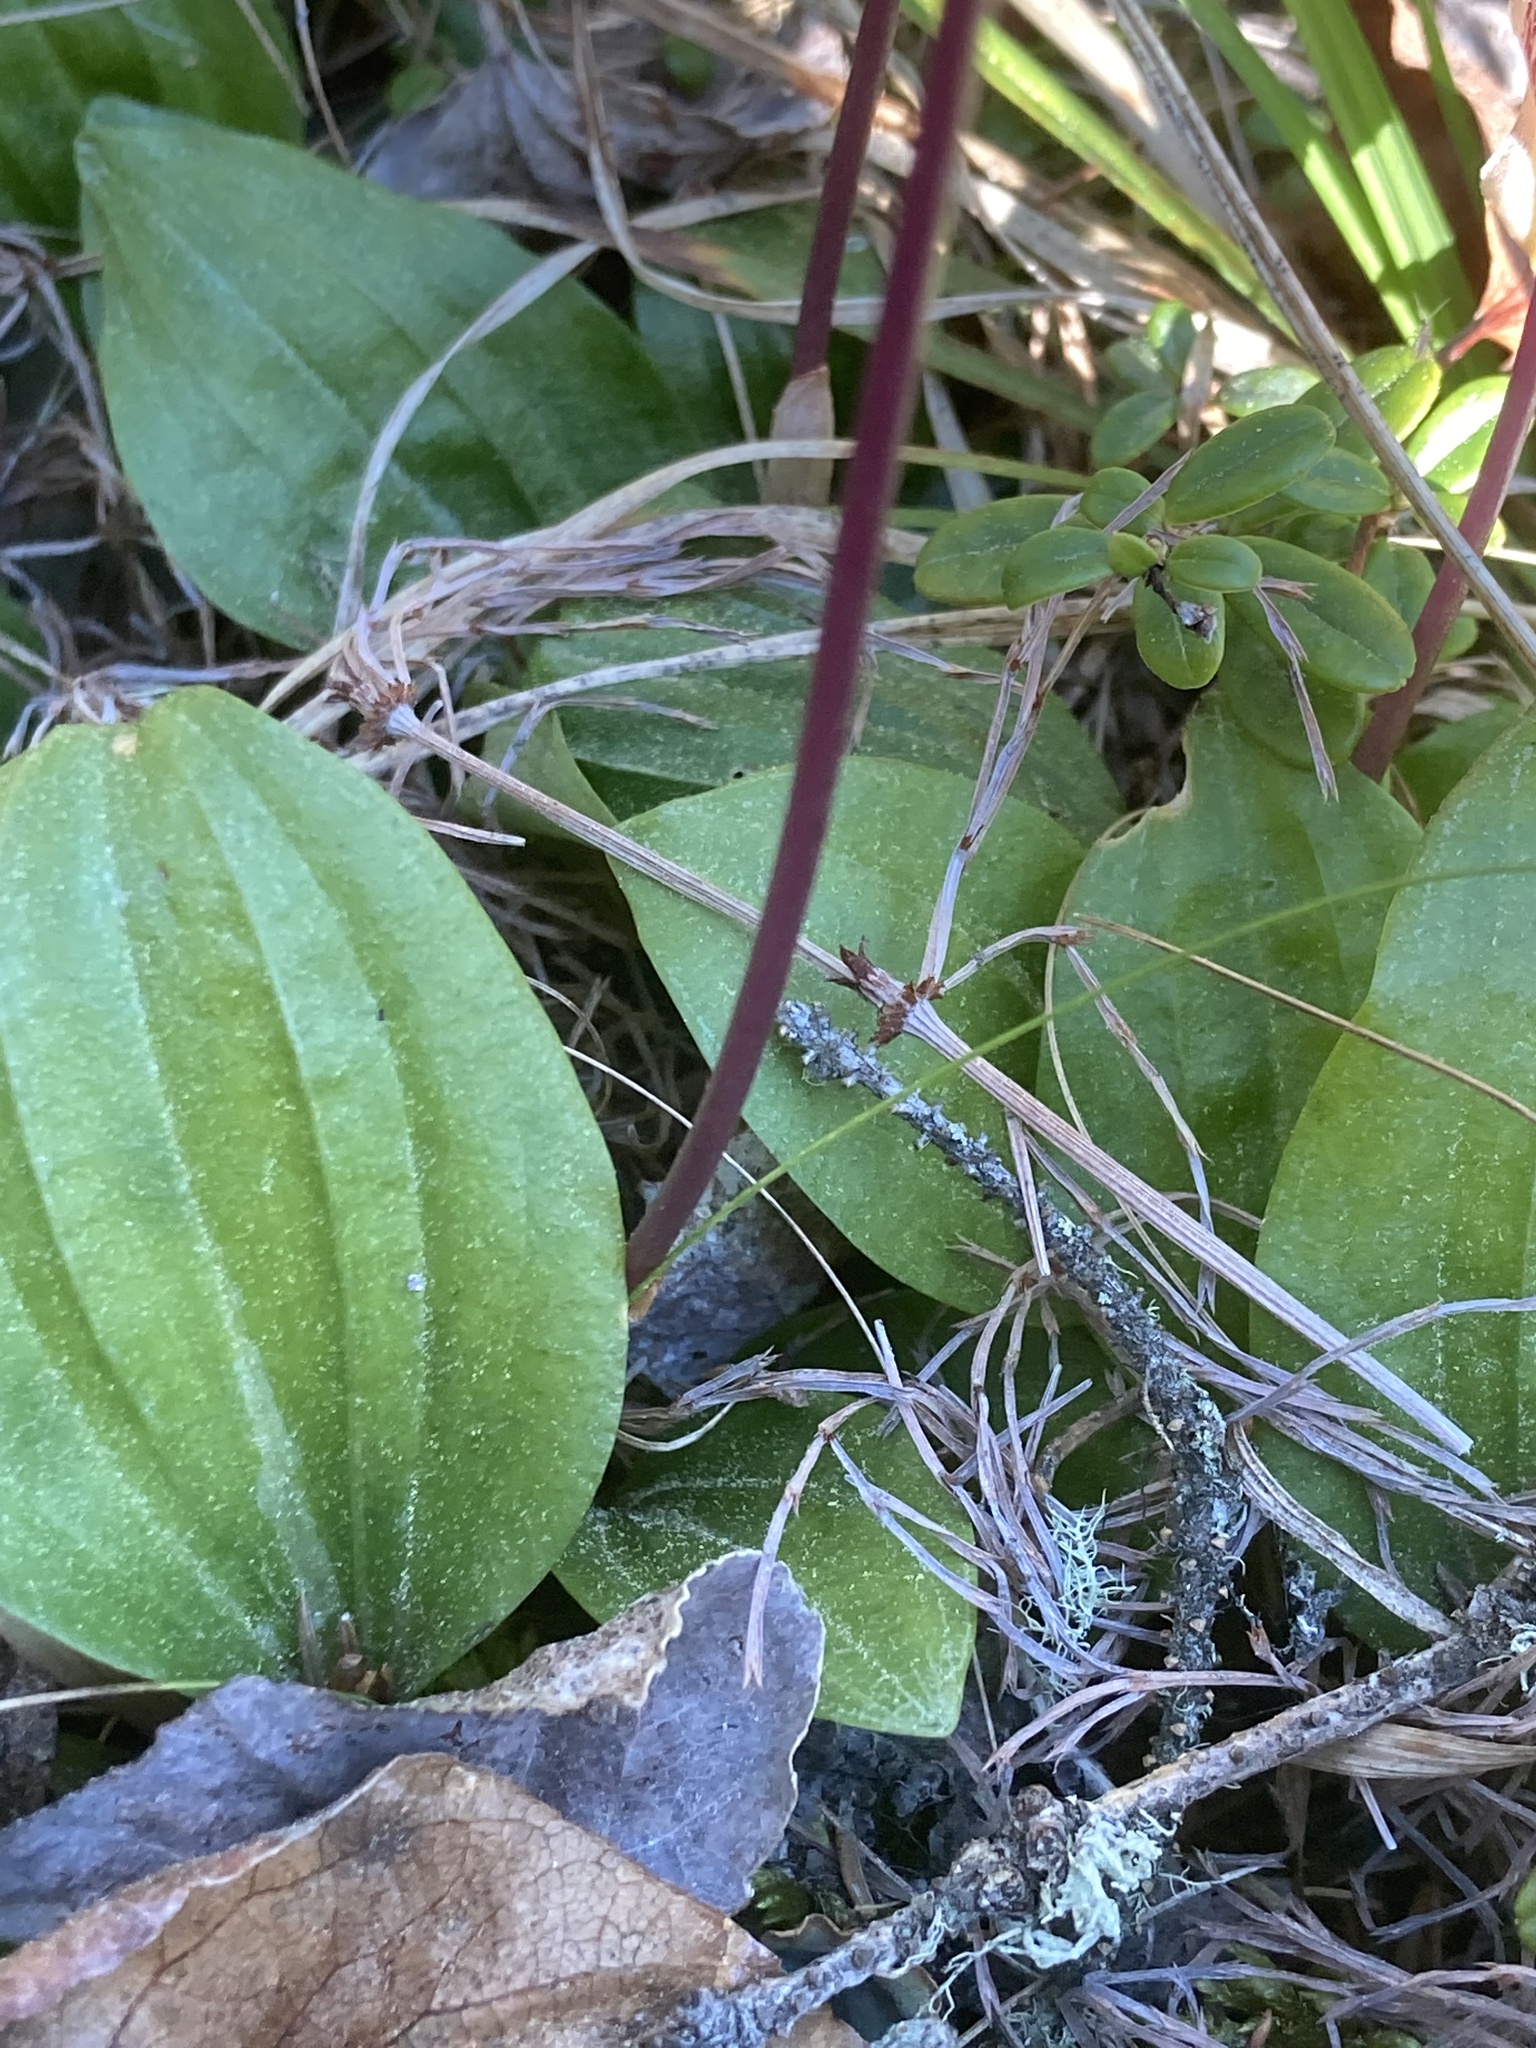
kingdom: Plantae
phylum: Tracheophyta
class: Liliopsida
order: Asparagales
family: Orchidaceae
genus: Calypso
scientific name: Calypso bulbosa
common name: Calypso
